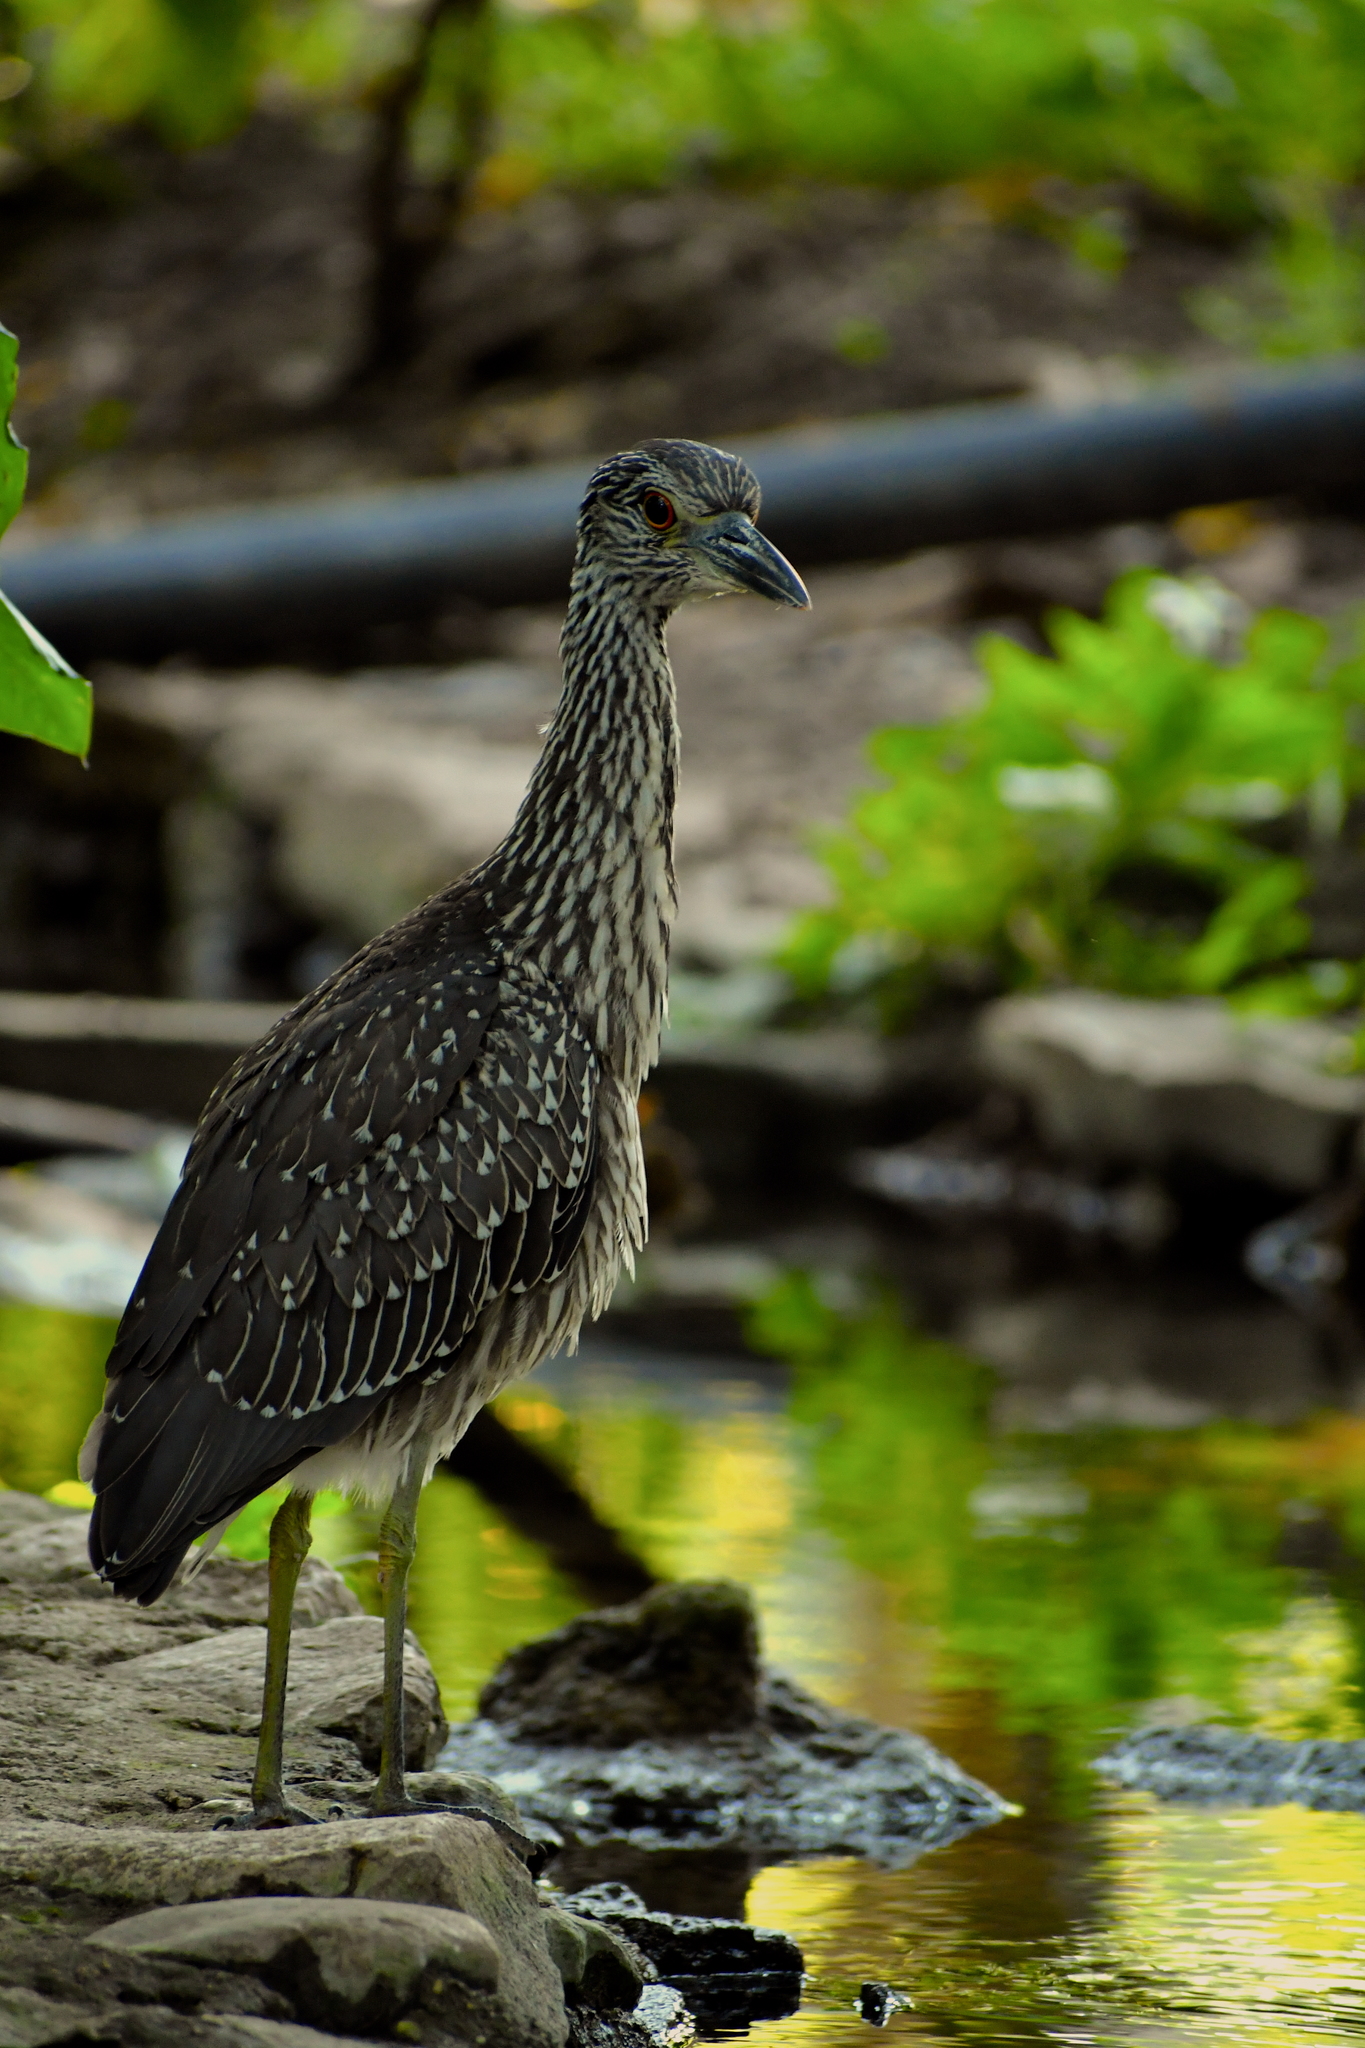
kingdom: Animalia
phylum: Chordata
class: Aves
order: Pelecaniformes
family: Ardeidae
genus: Nyctanassa
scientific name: Nyctanassa violacea
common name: Yellow-crowned night heron
